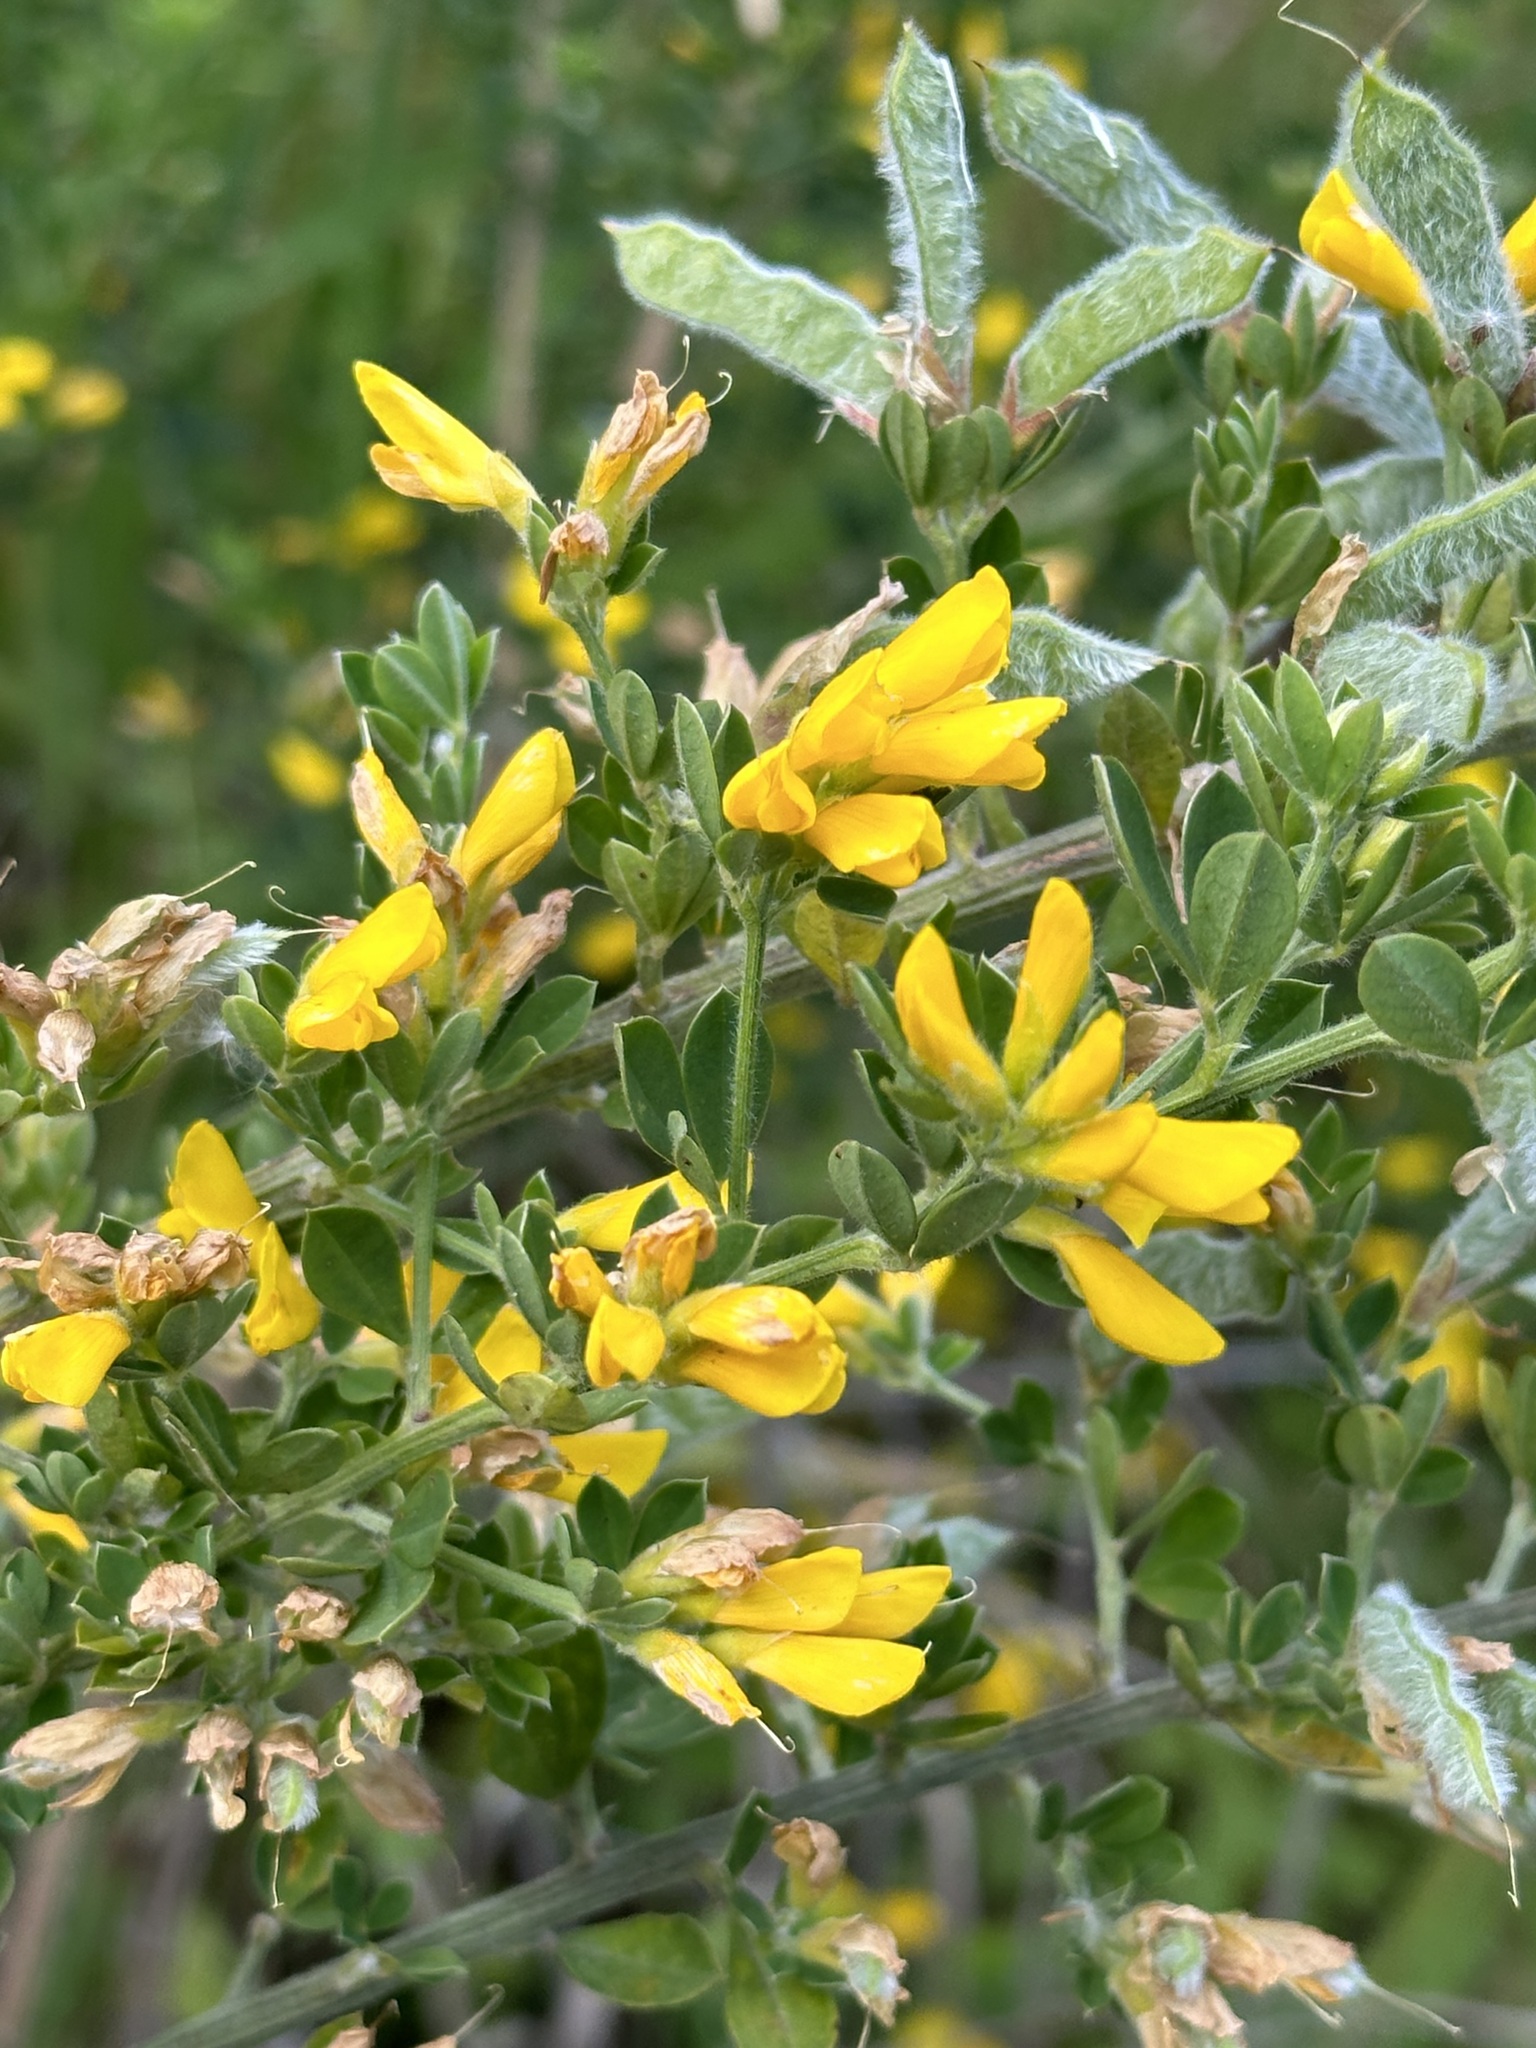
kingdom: Plantae
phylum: Tracheophyta
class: Magnoliopsida
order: Fabales
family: Fabaceae
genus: Genista
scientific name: Genista monspessulana
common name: Montpellier broom
